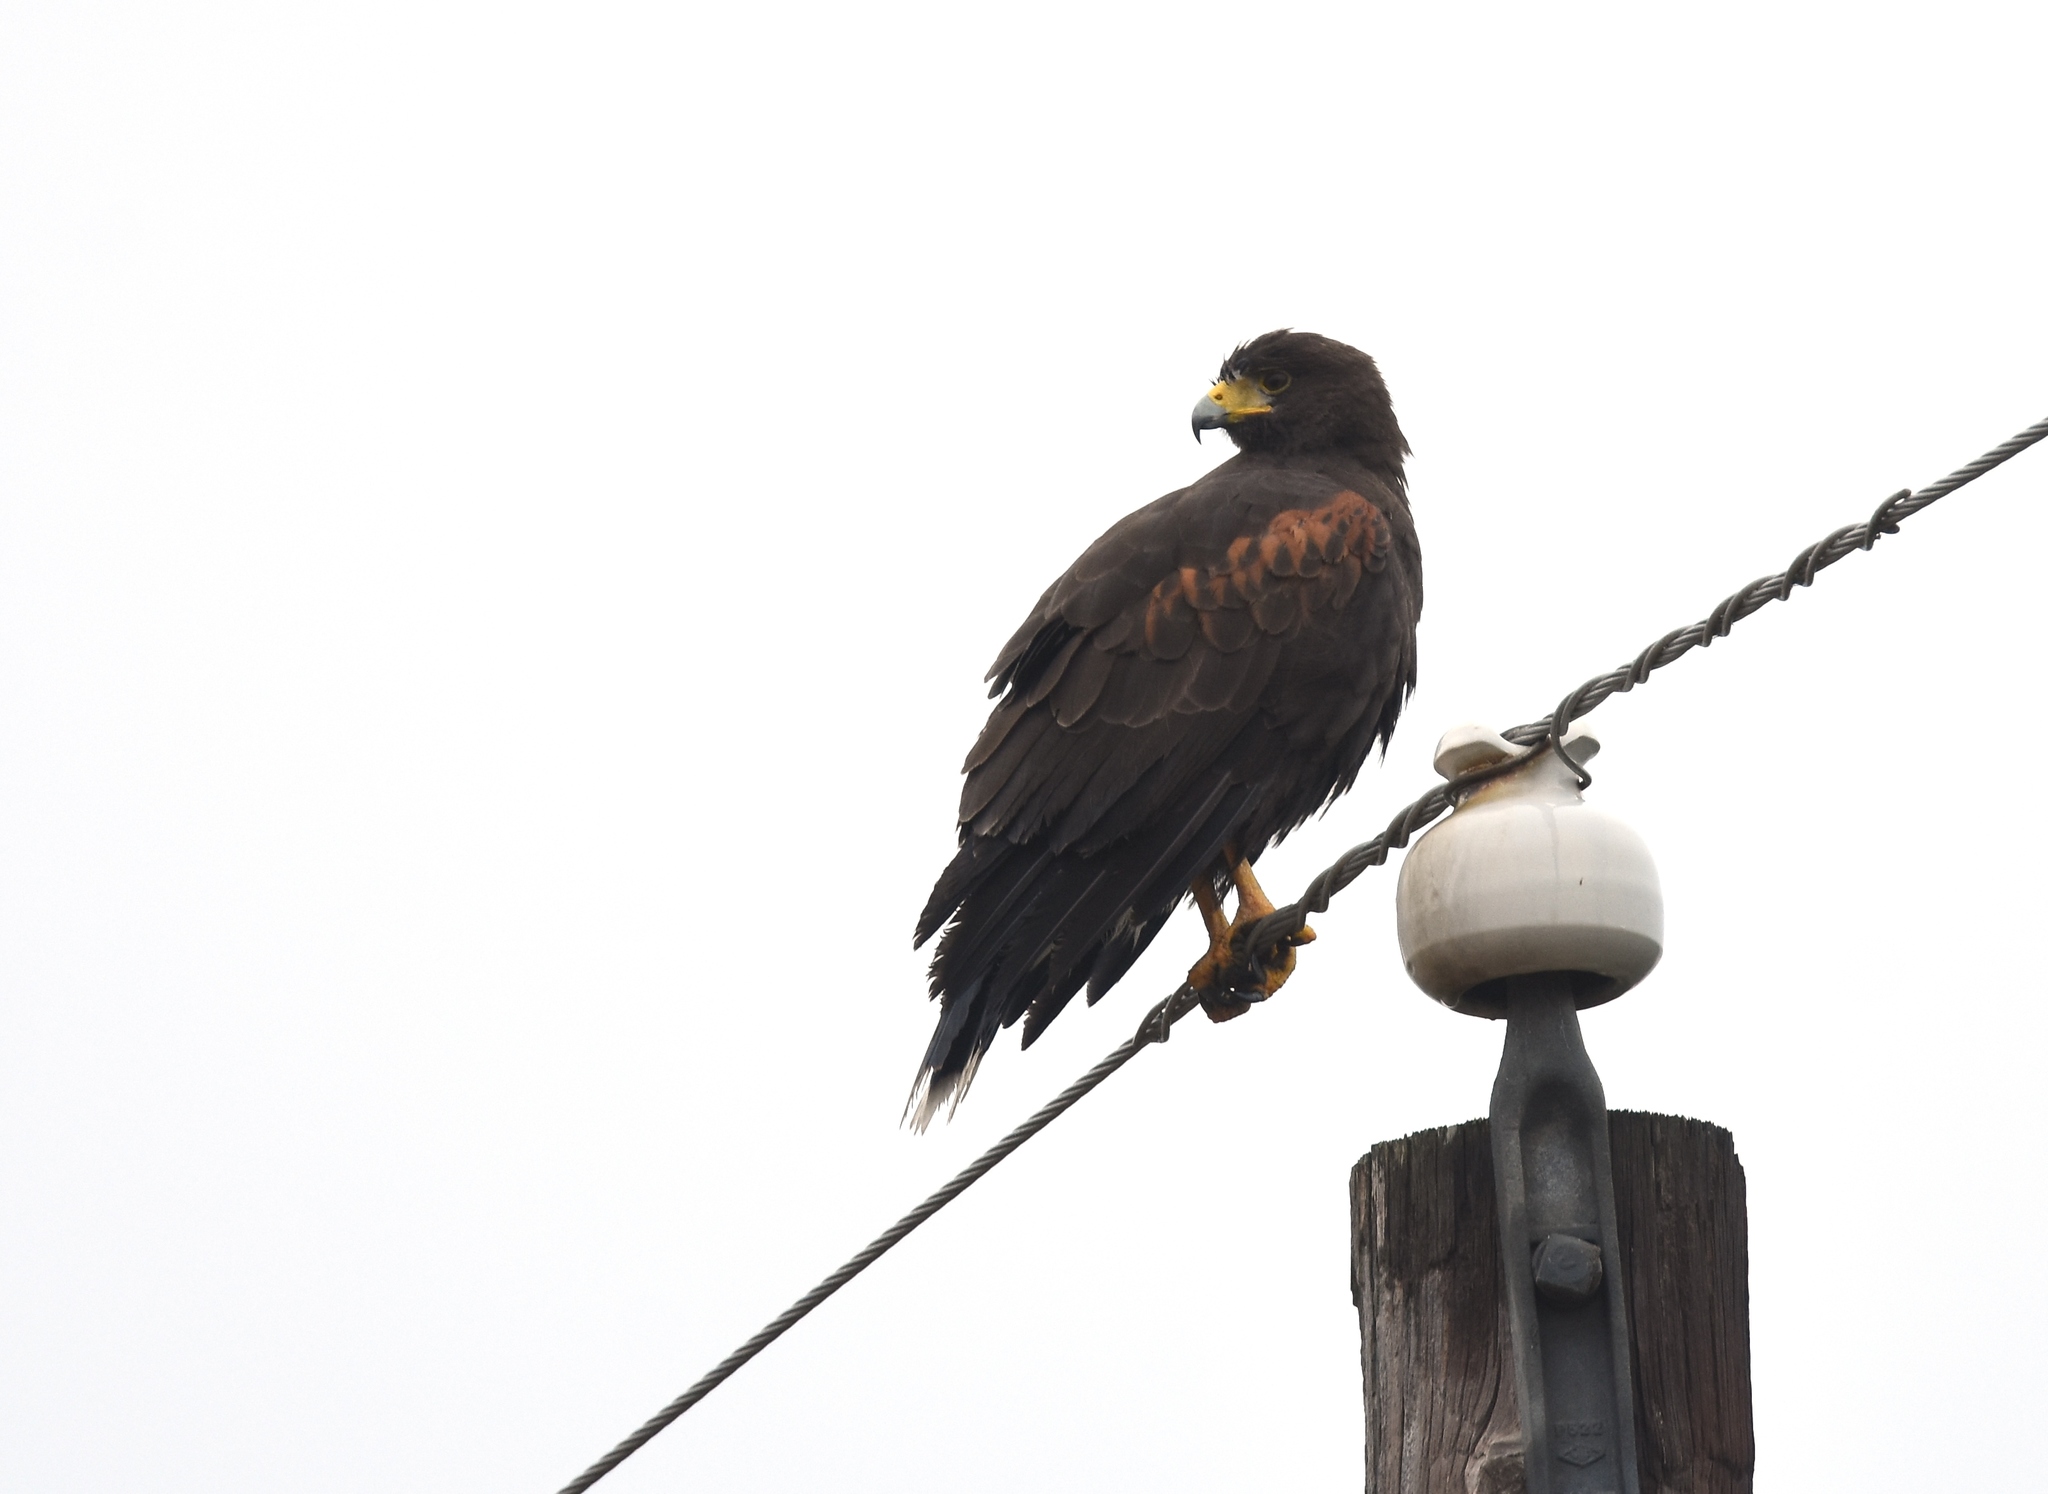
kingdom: Animalia
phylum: Chordata
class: Aves
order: Accipitriformes
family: Accipitridae
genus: Parabuteo
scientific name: Parabuteo unicinctus
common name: Harris's hawk
